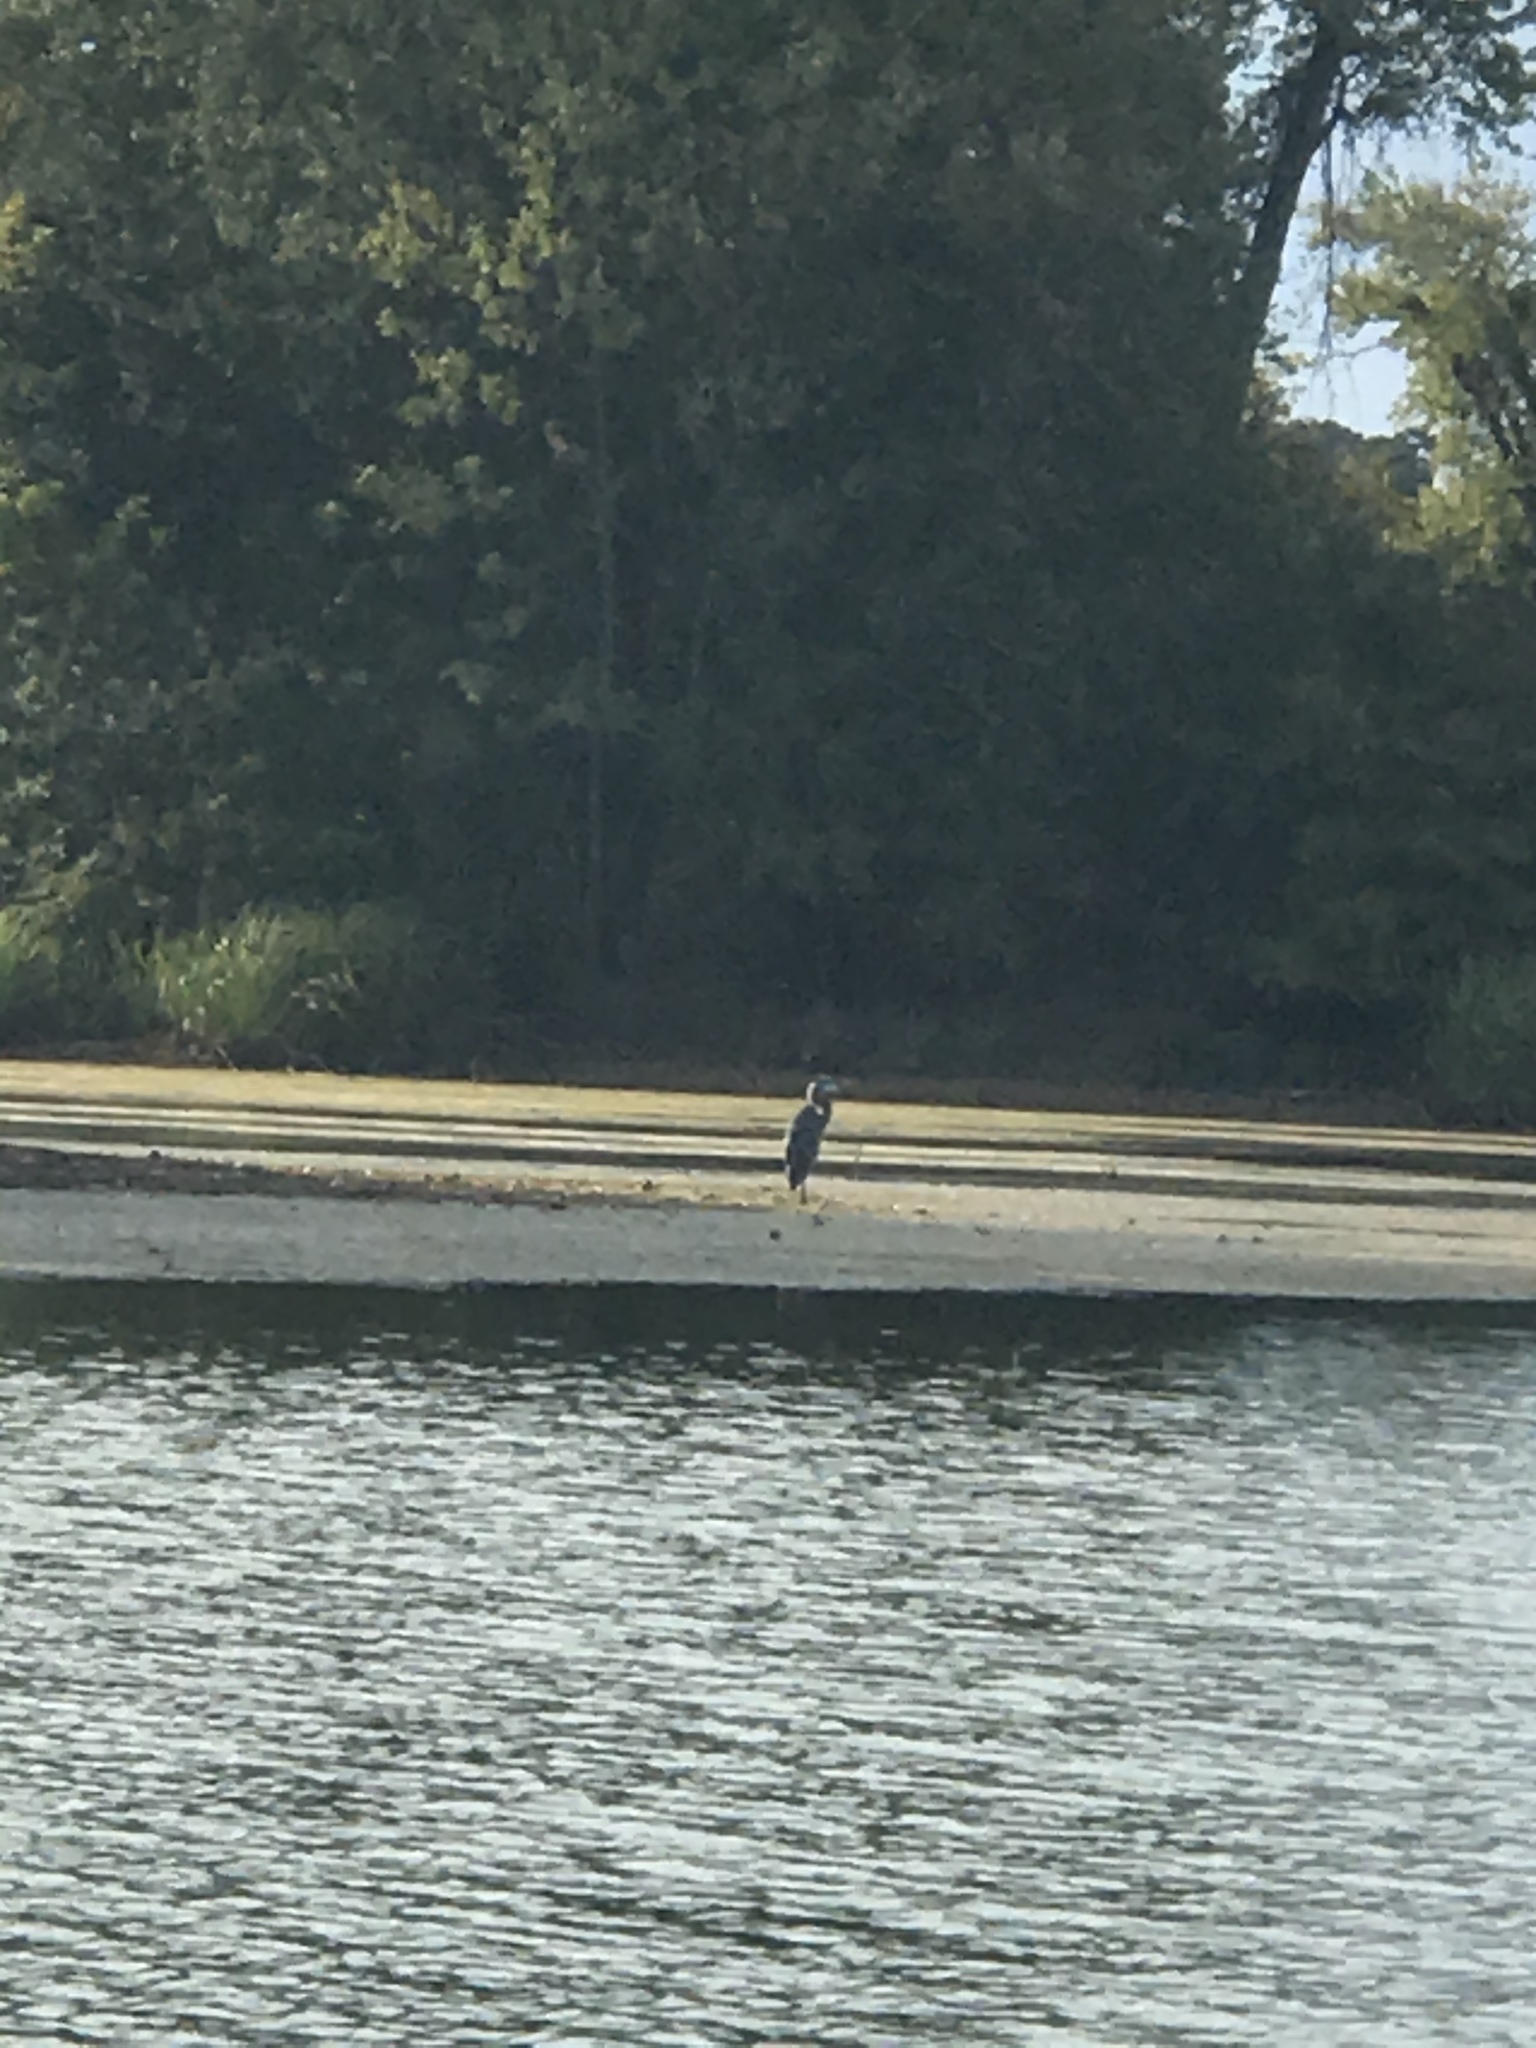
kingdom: Animalia
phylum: Chordata
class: Aves
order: Pelecaniformes
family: Ardeidae
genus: Ardea
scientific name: Ardea herodias
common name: Great blue heron
